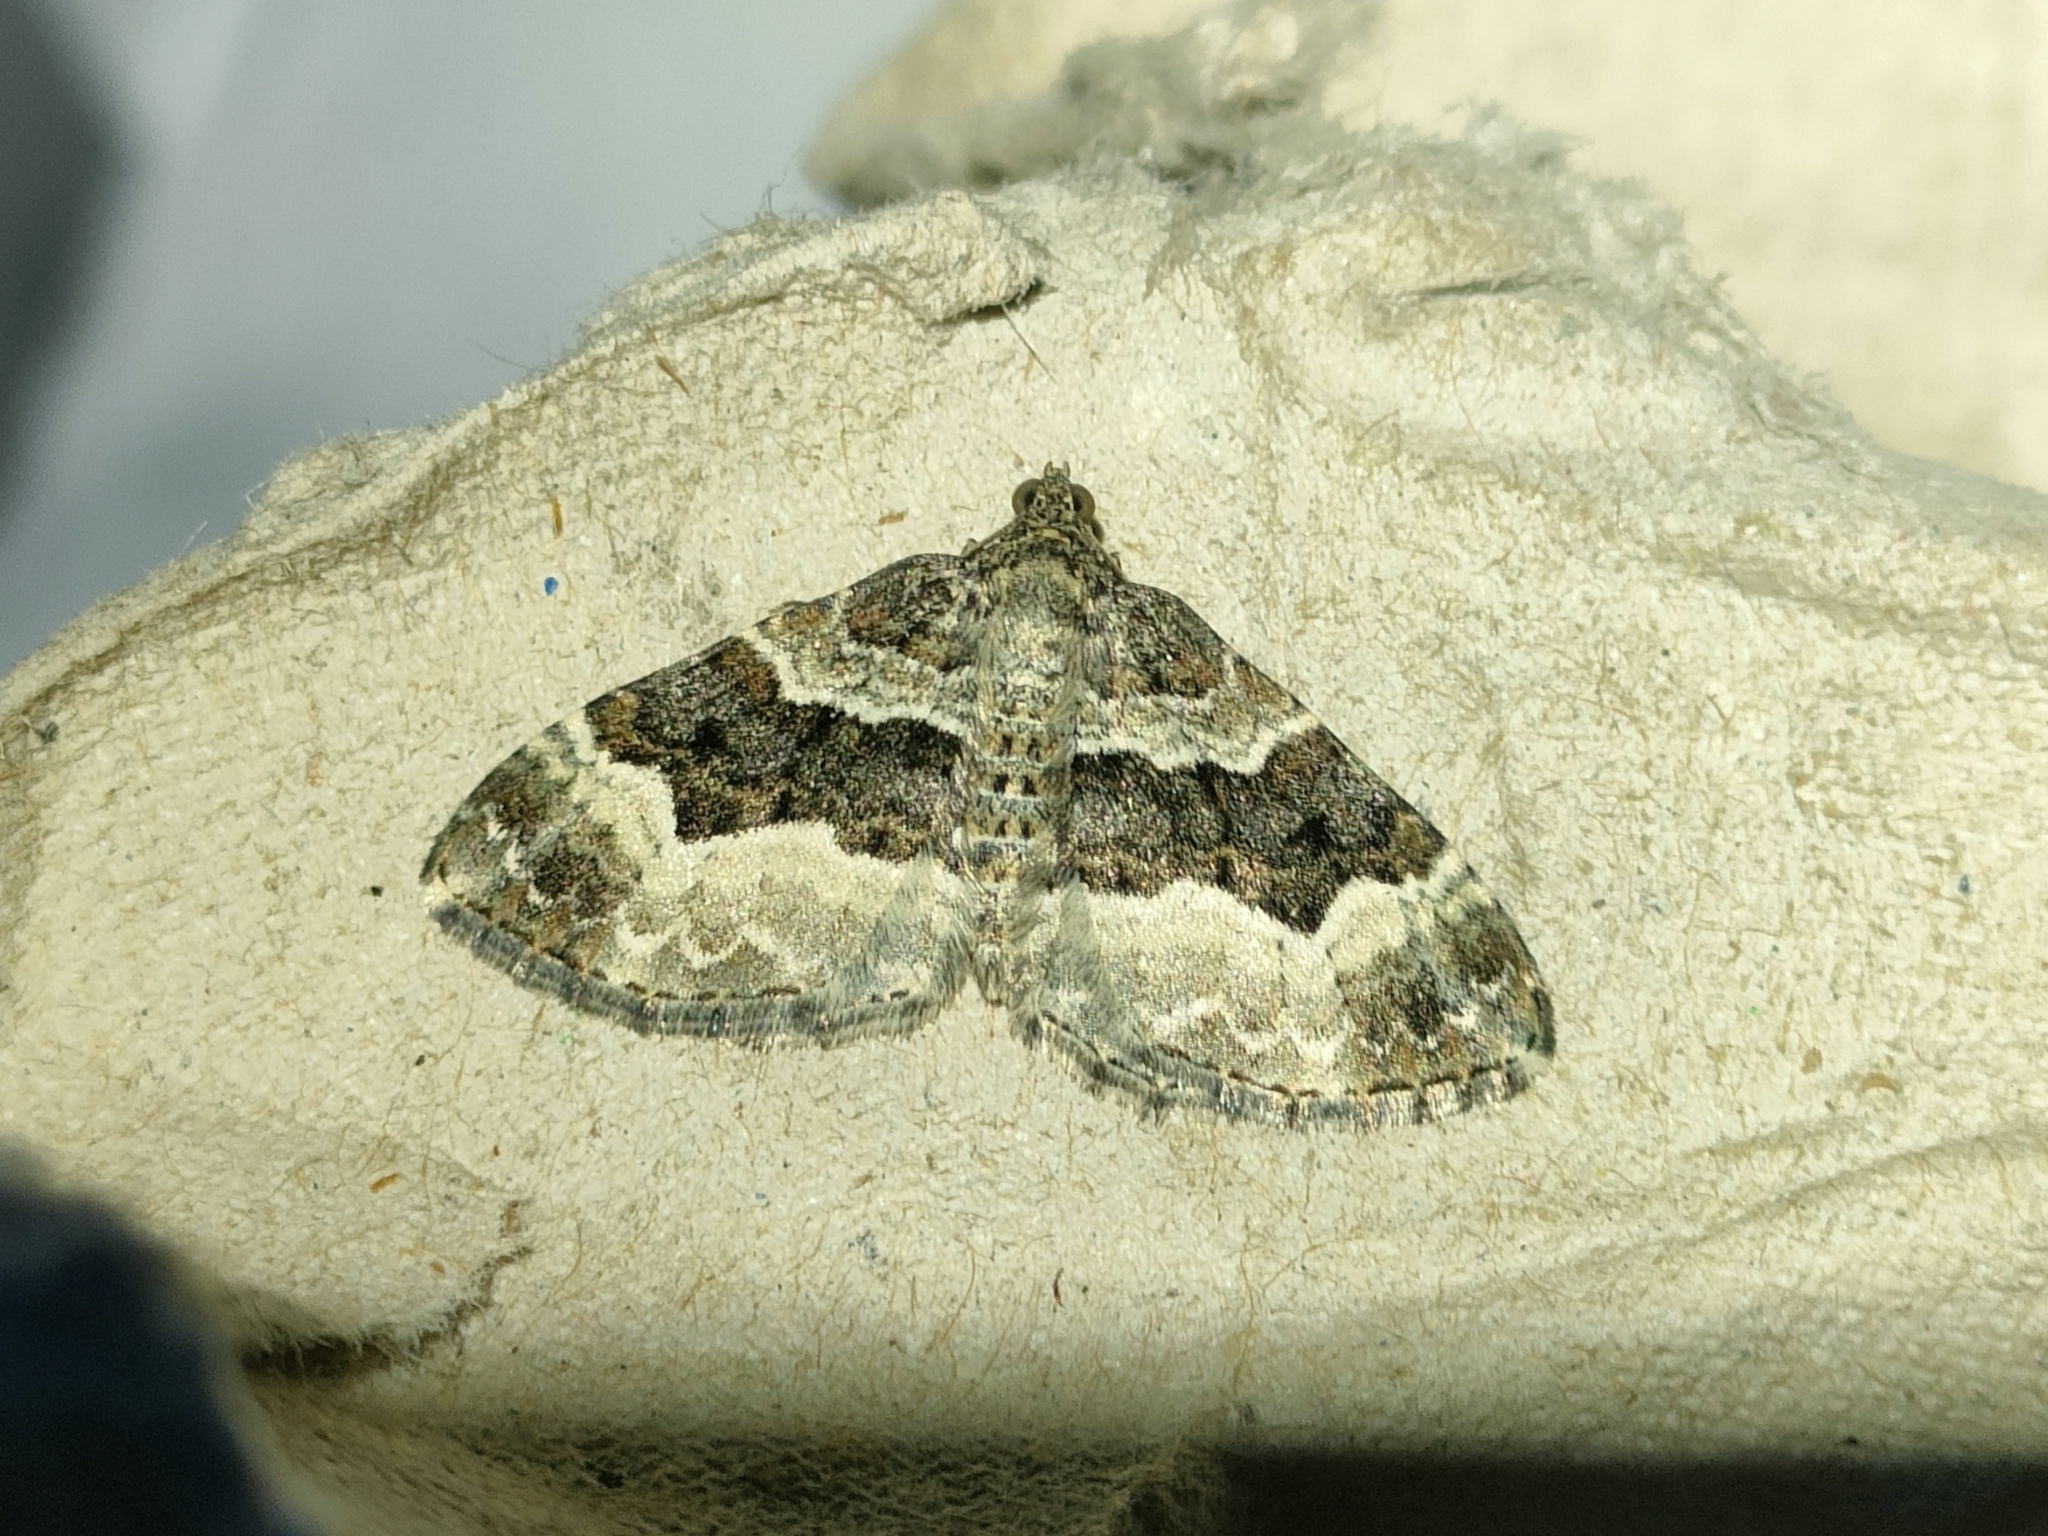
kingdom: Animalia
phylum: Arthropoda
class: Insecta
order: Lepidoptera
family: Geometridae
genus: Epirrhoe
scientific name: Epirrhoe alternata
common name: Common carpet
